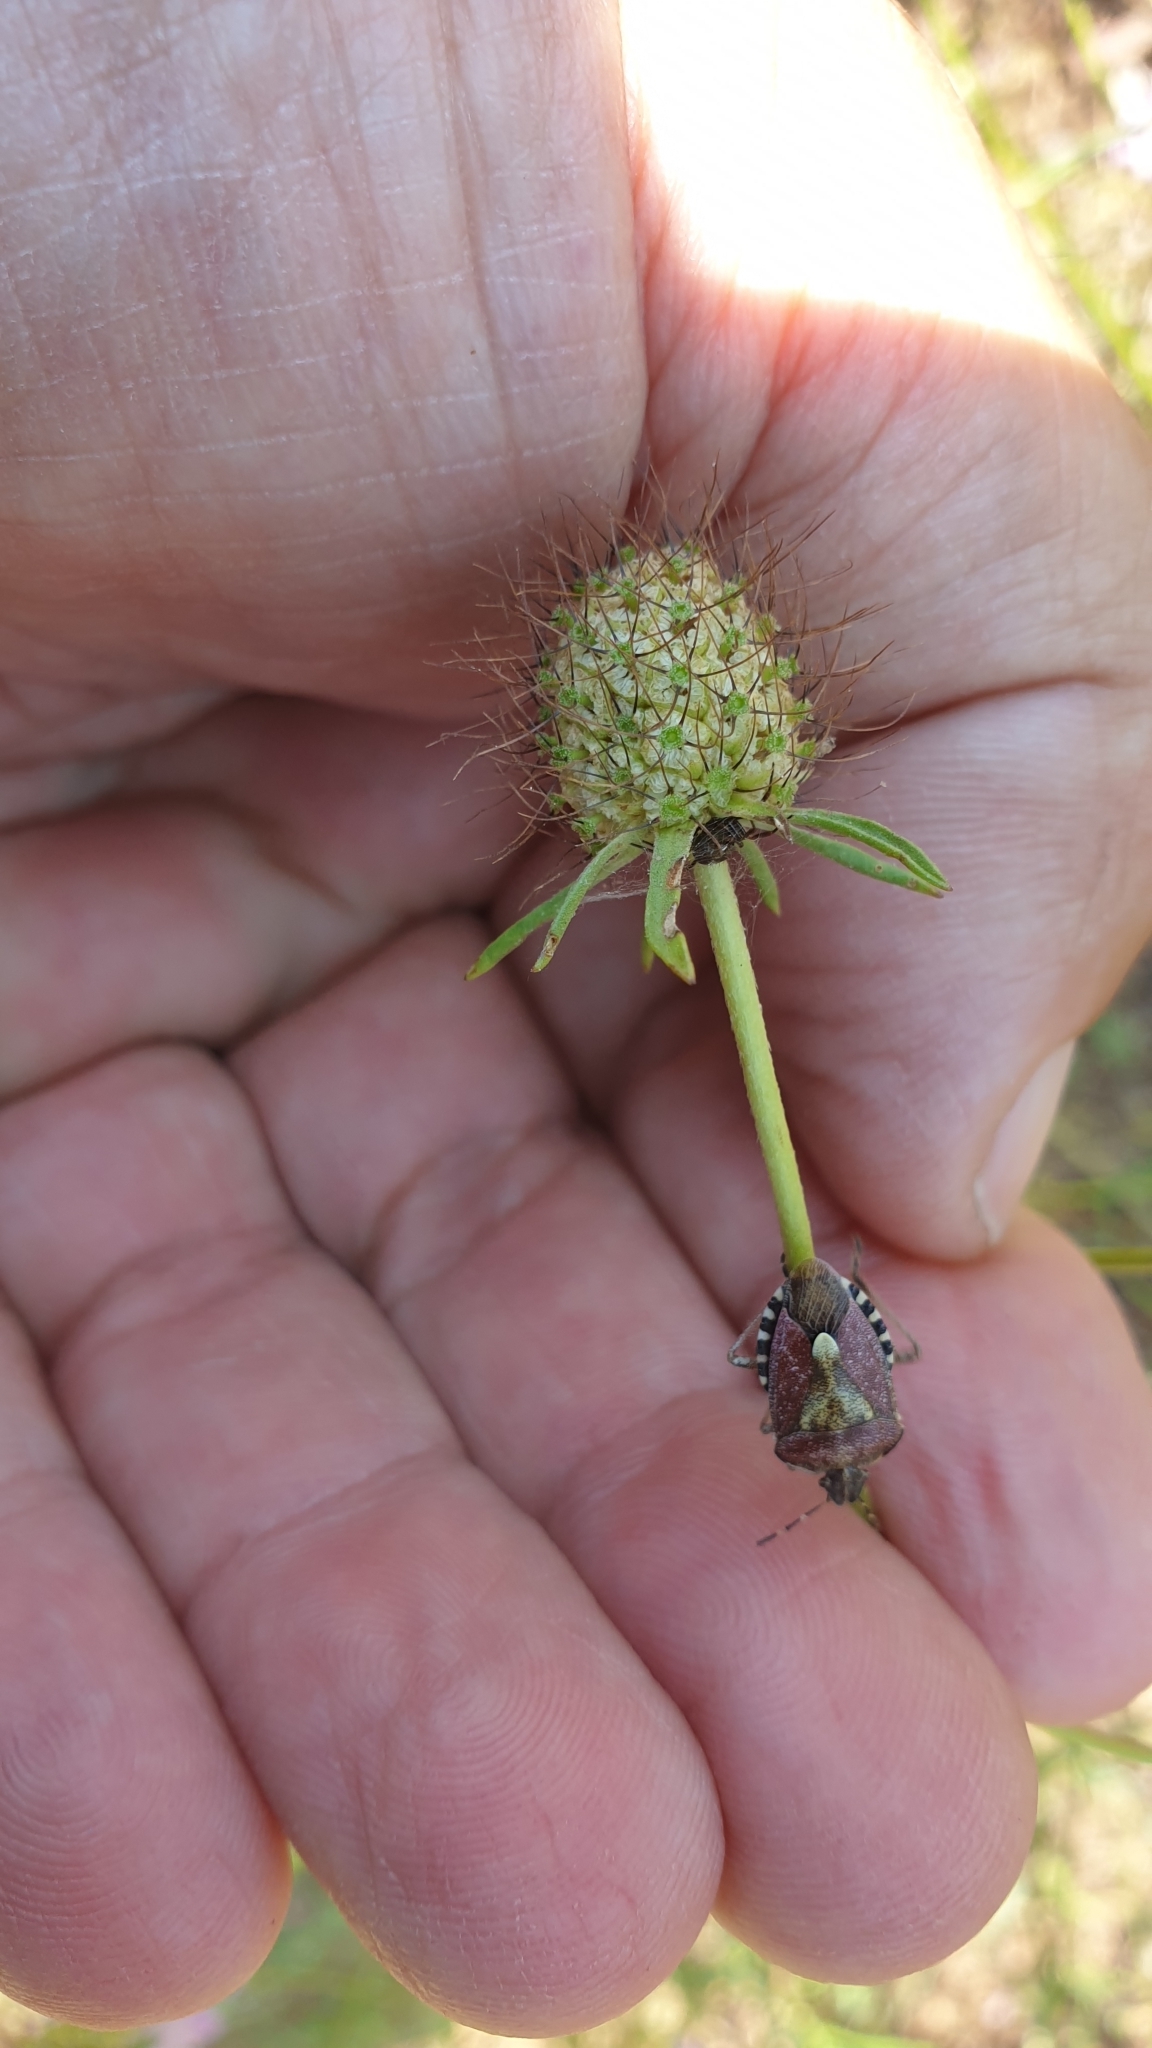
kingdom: Animalia
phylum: Arthropoda
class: Insecta
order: Hemiptera
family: Pentatomidae
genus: Dolycoris
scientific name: Dolycoris baccarum
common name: Sloe bug
